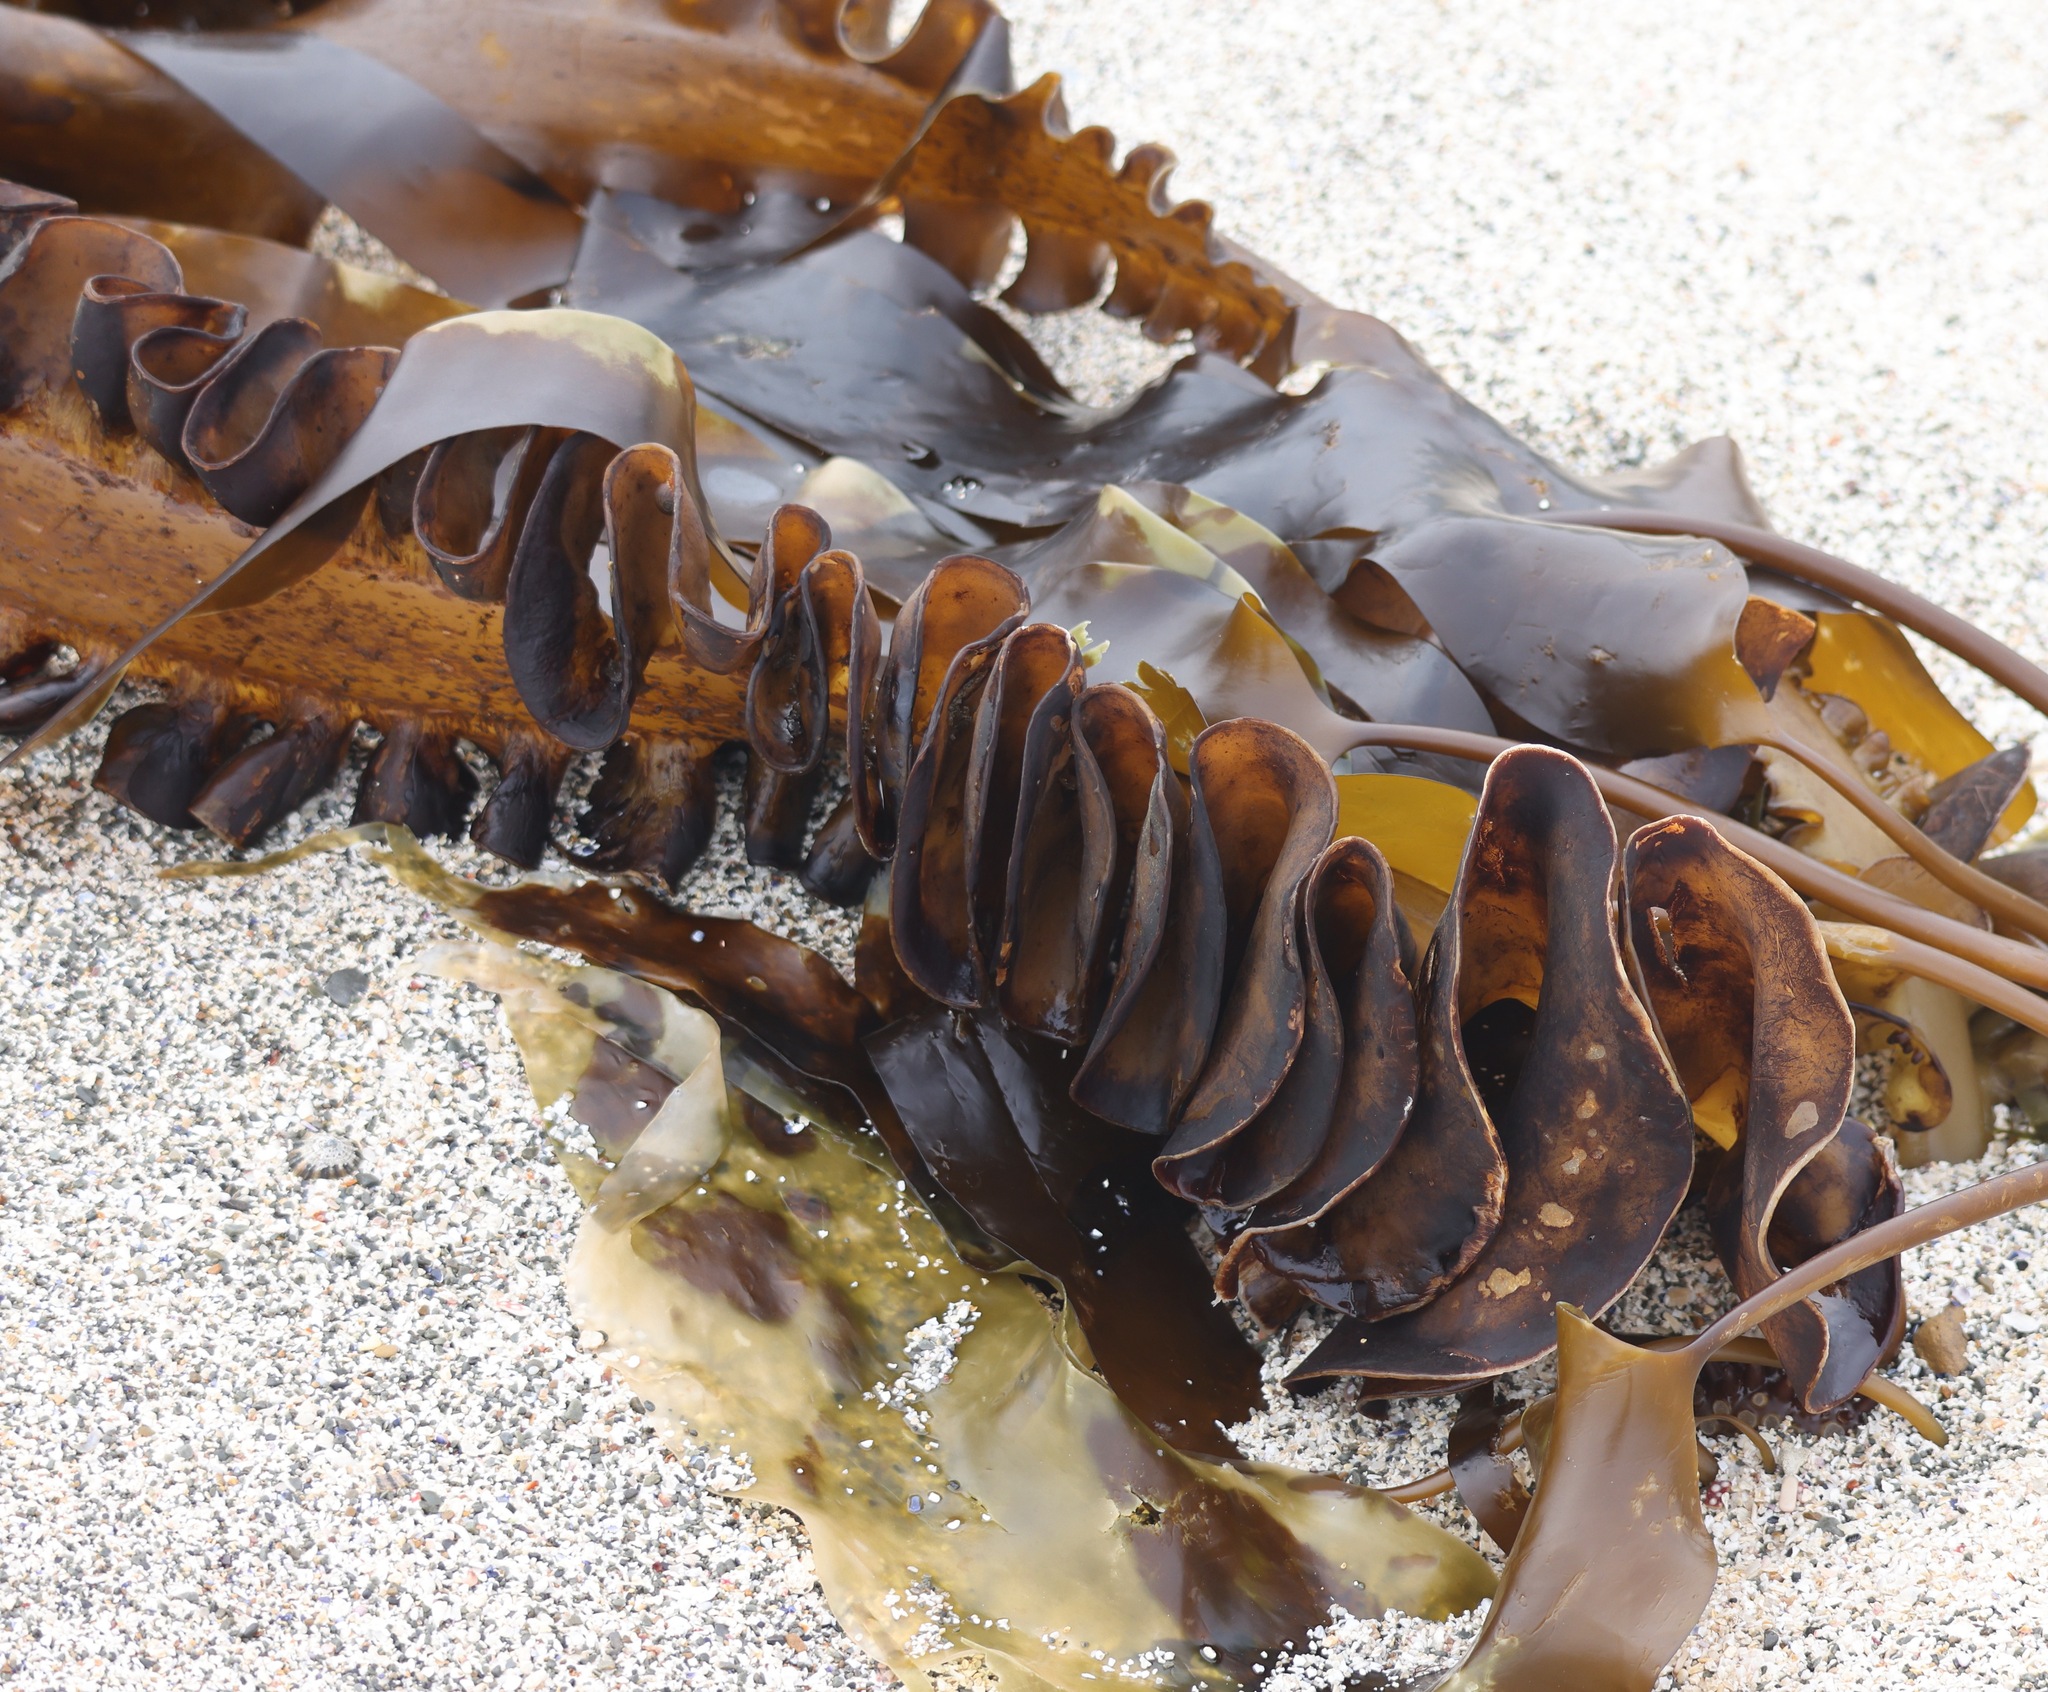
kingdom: Chromista
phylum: Ochrophyta
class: Phaeophyceae
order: Tilopteridales
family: Phyllariaceae
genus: Saccorhiza
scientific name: Saccorhiza polyschides
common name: Furbelows
